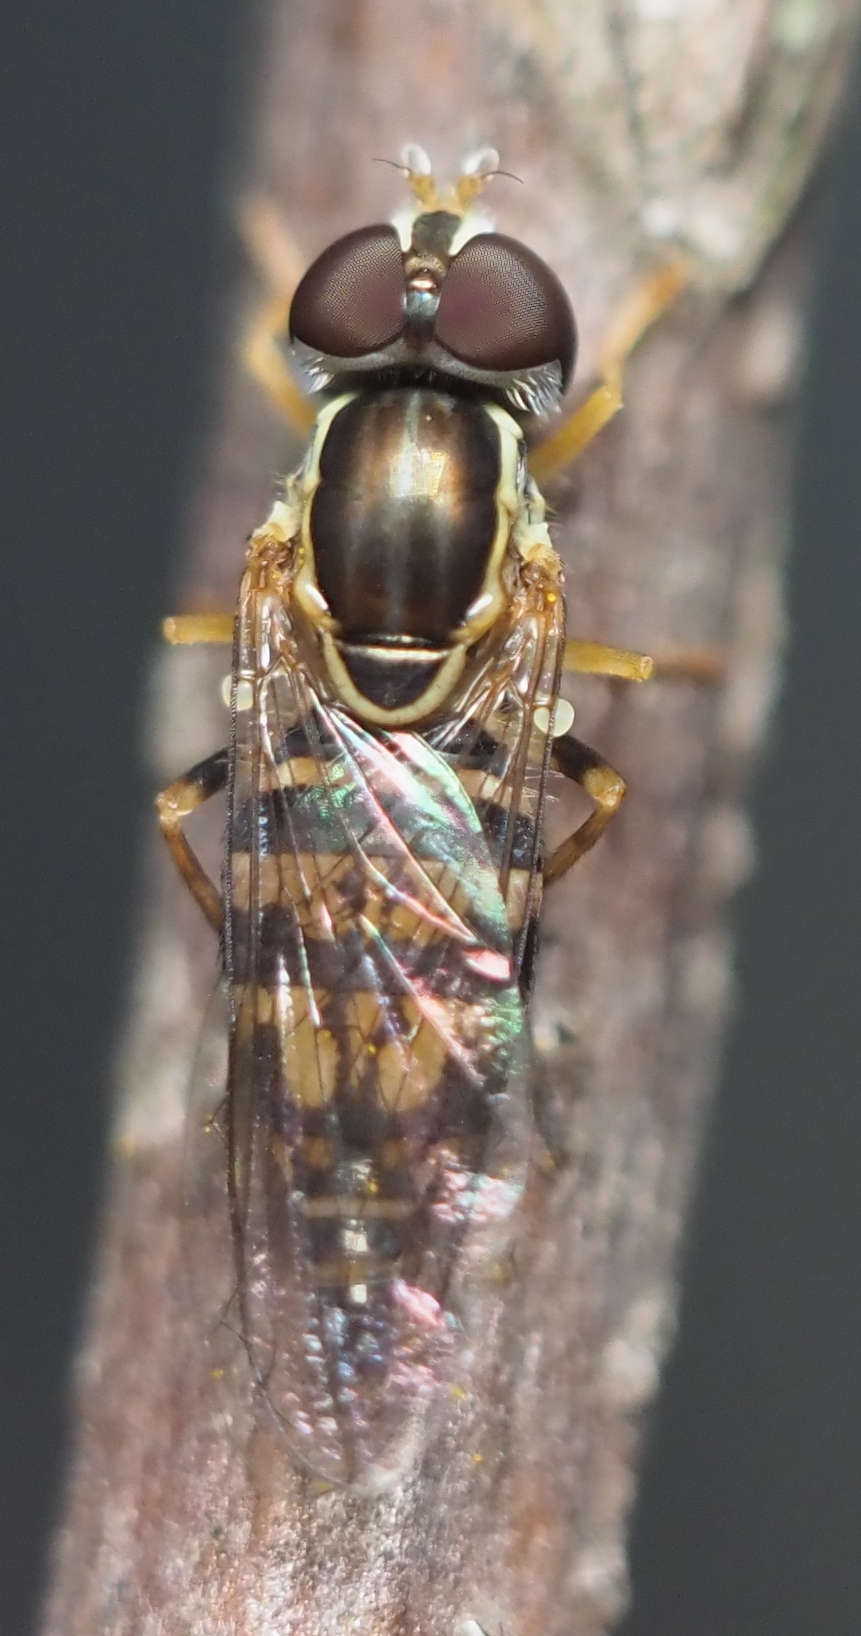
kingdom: Animalia
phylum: Arthropoda
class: Insecta
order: Diptera
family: Syrphidae
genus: Toxomerus
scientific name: Toxomerus geminatus
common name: Eastern calligrapher
